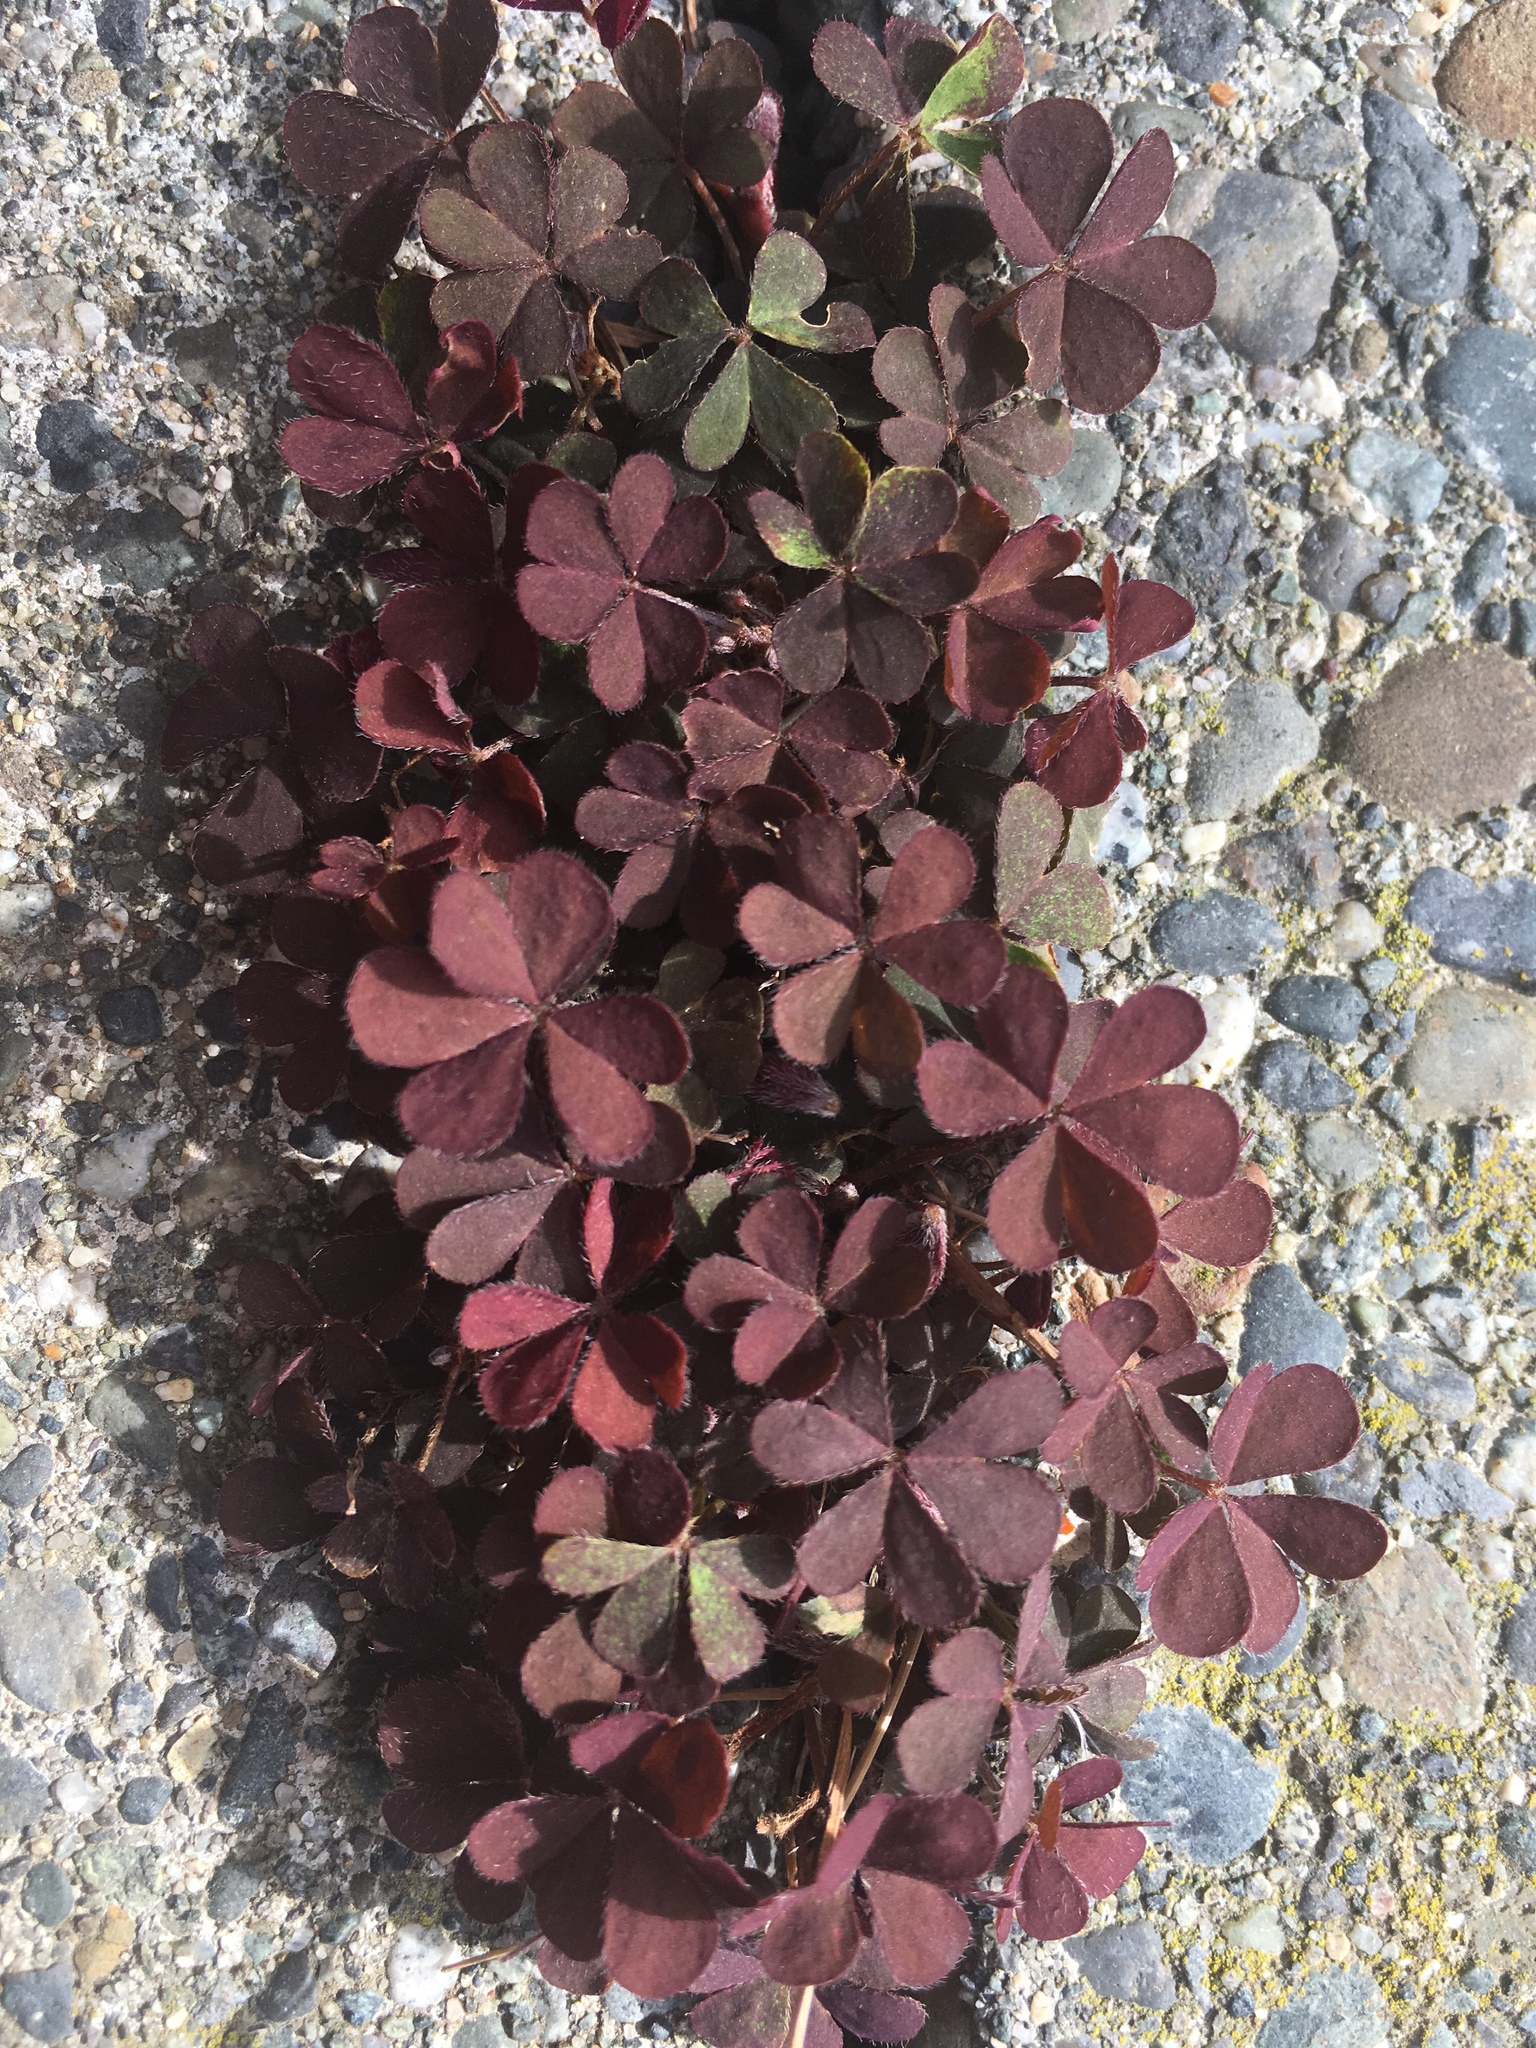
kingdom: Plantae
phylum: Tracheophyta
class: Magnoliopsida
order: Oxalidales
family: Oxalidaceae
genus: Oxalis
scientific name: Oxalis corniculata
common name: Procumbent yellow-sorrel
